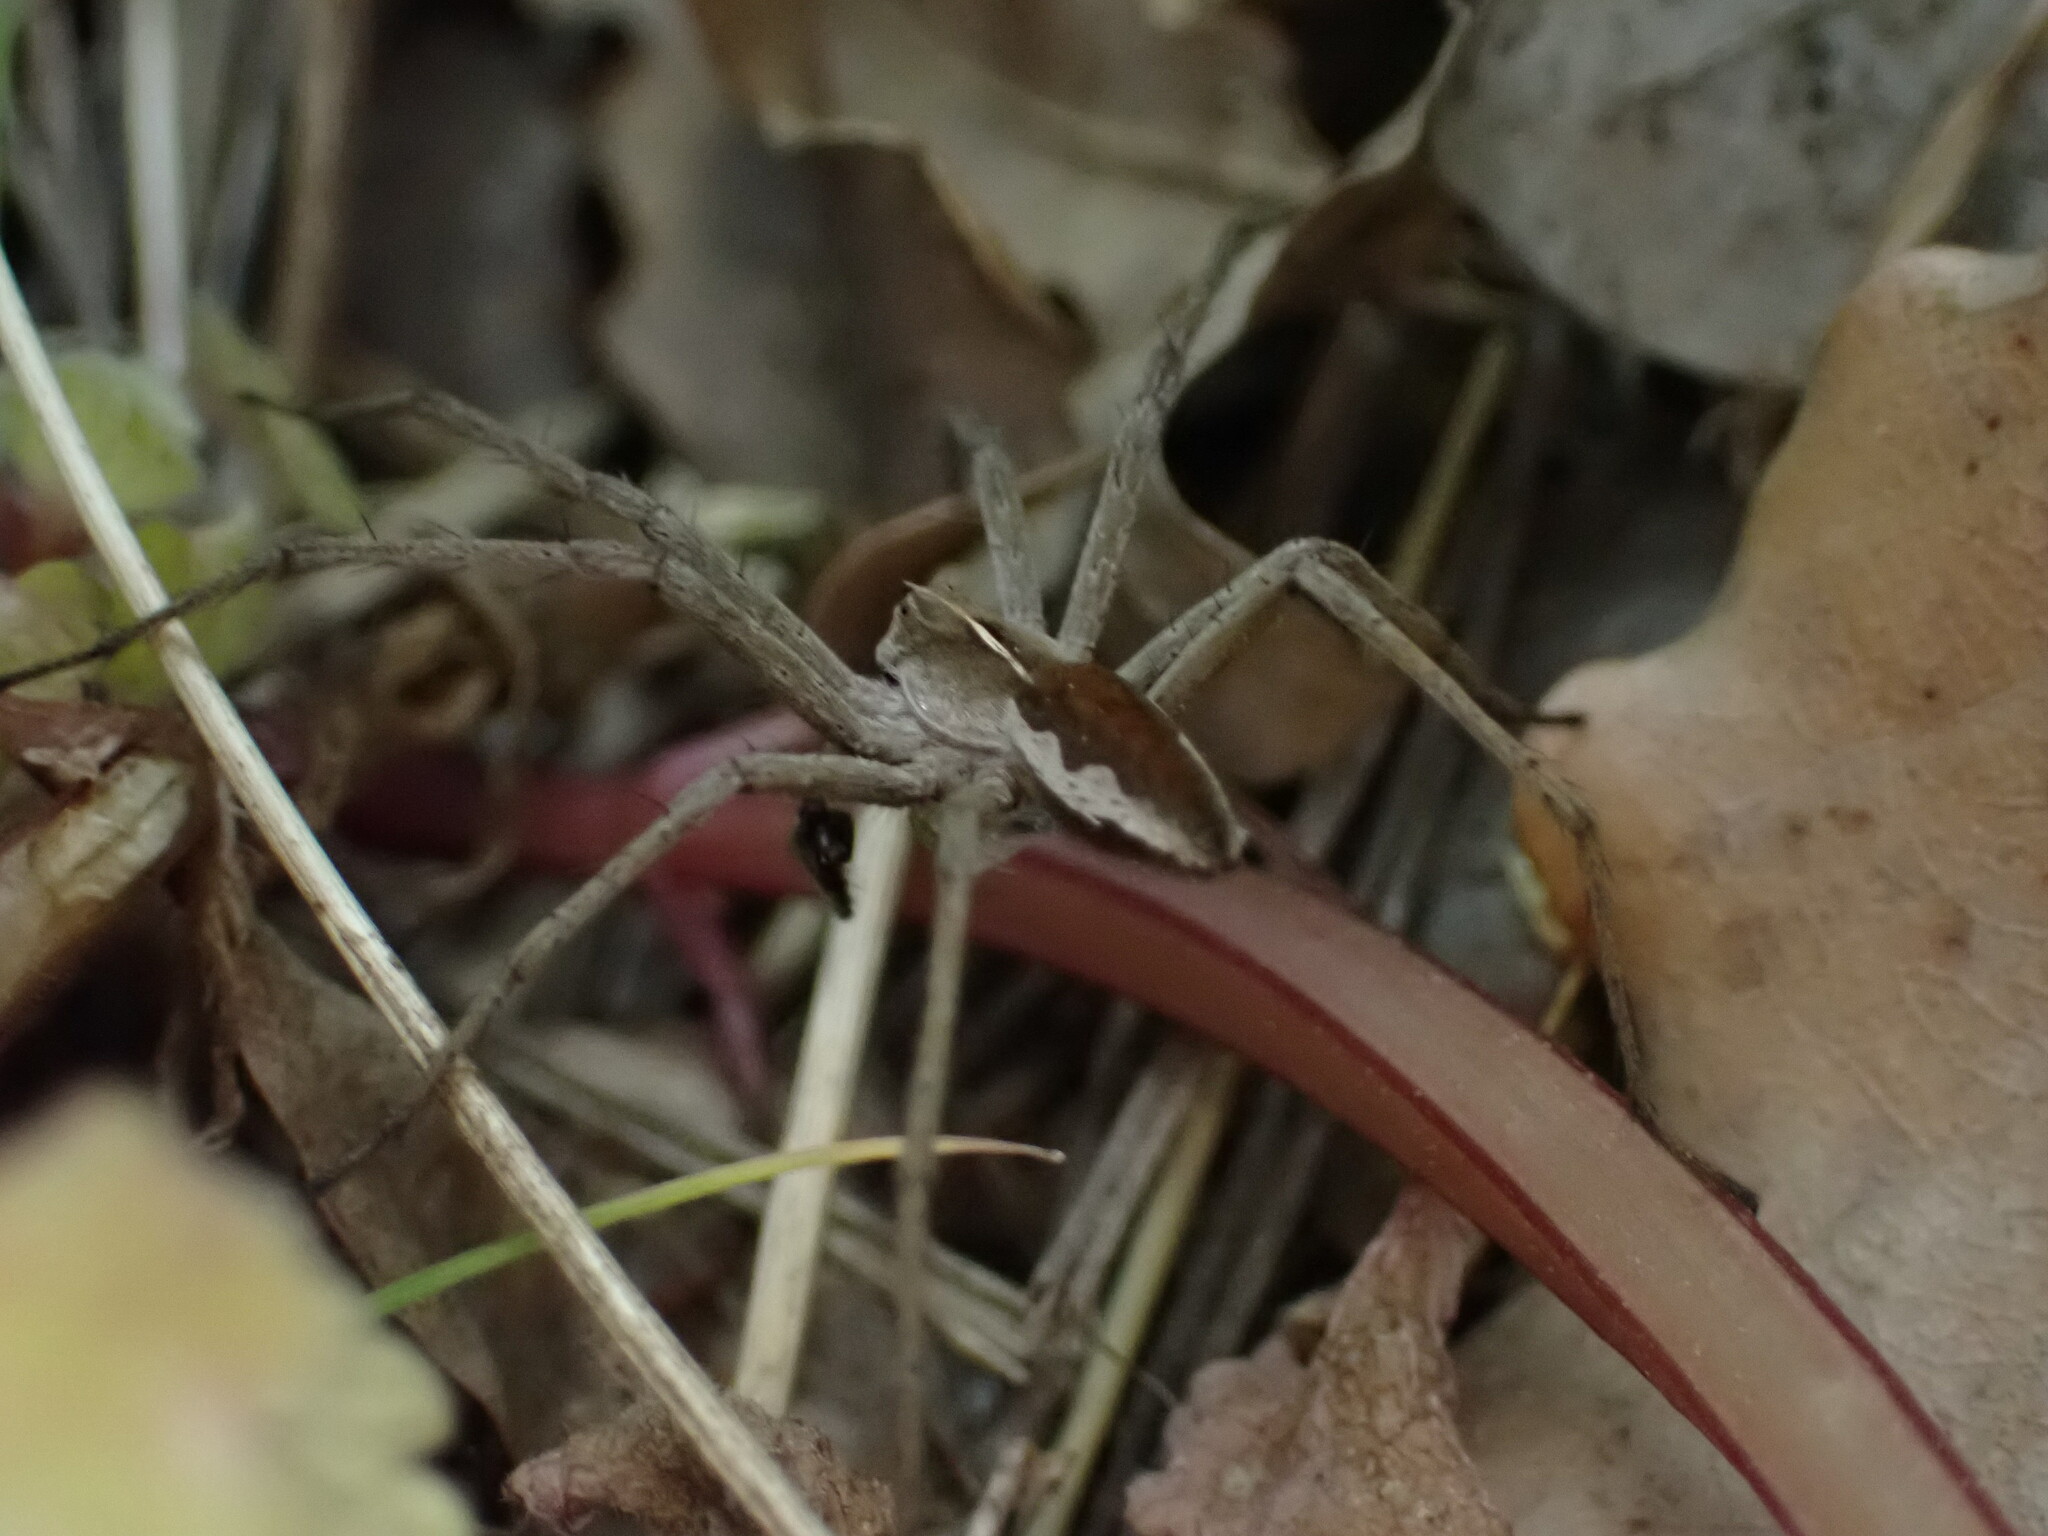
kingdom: Animalia
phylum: Arthropoda
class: Arachnida
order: Araneae
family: Pisauridae
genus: Pisaura
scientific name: Pisaura
